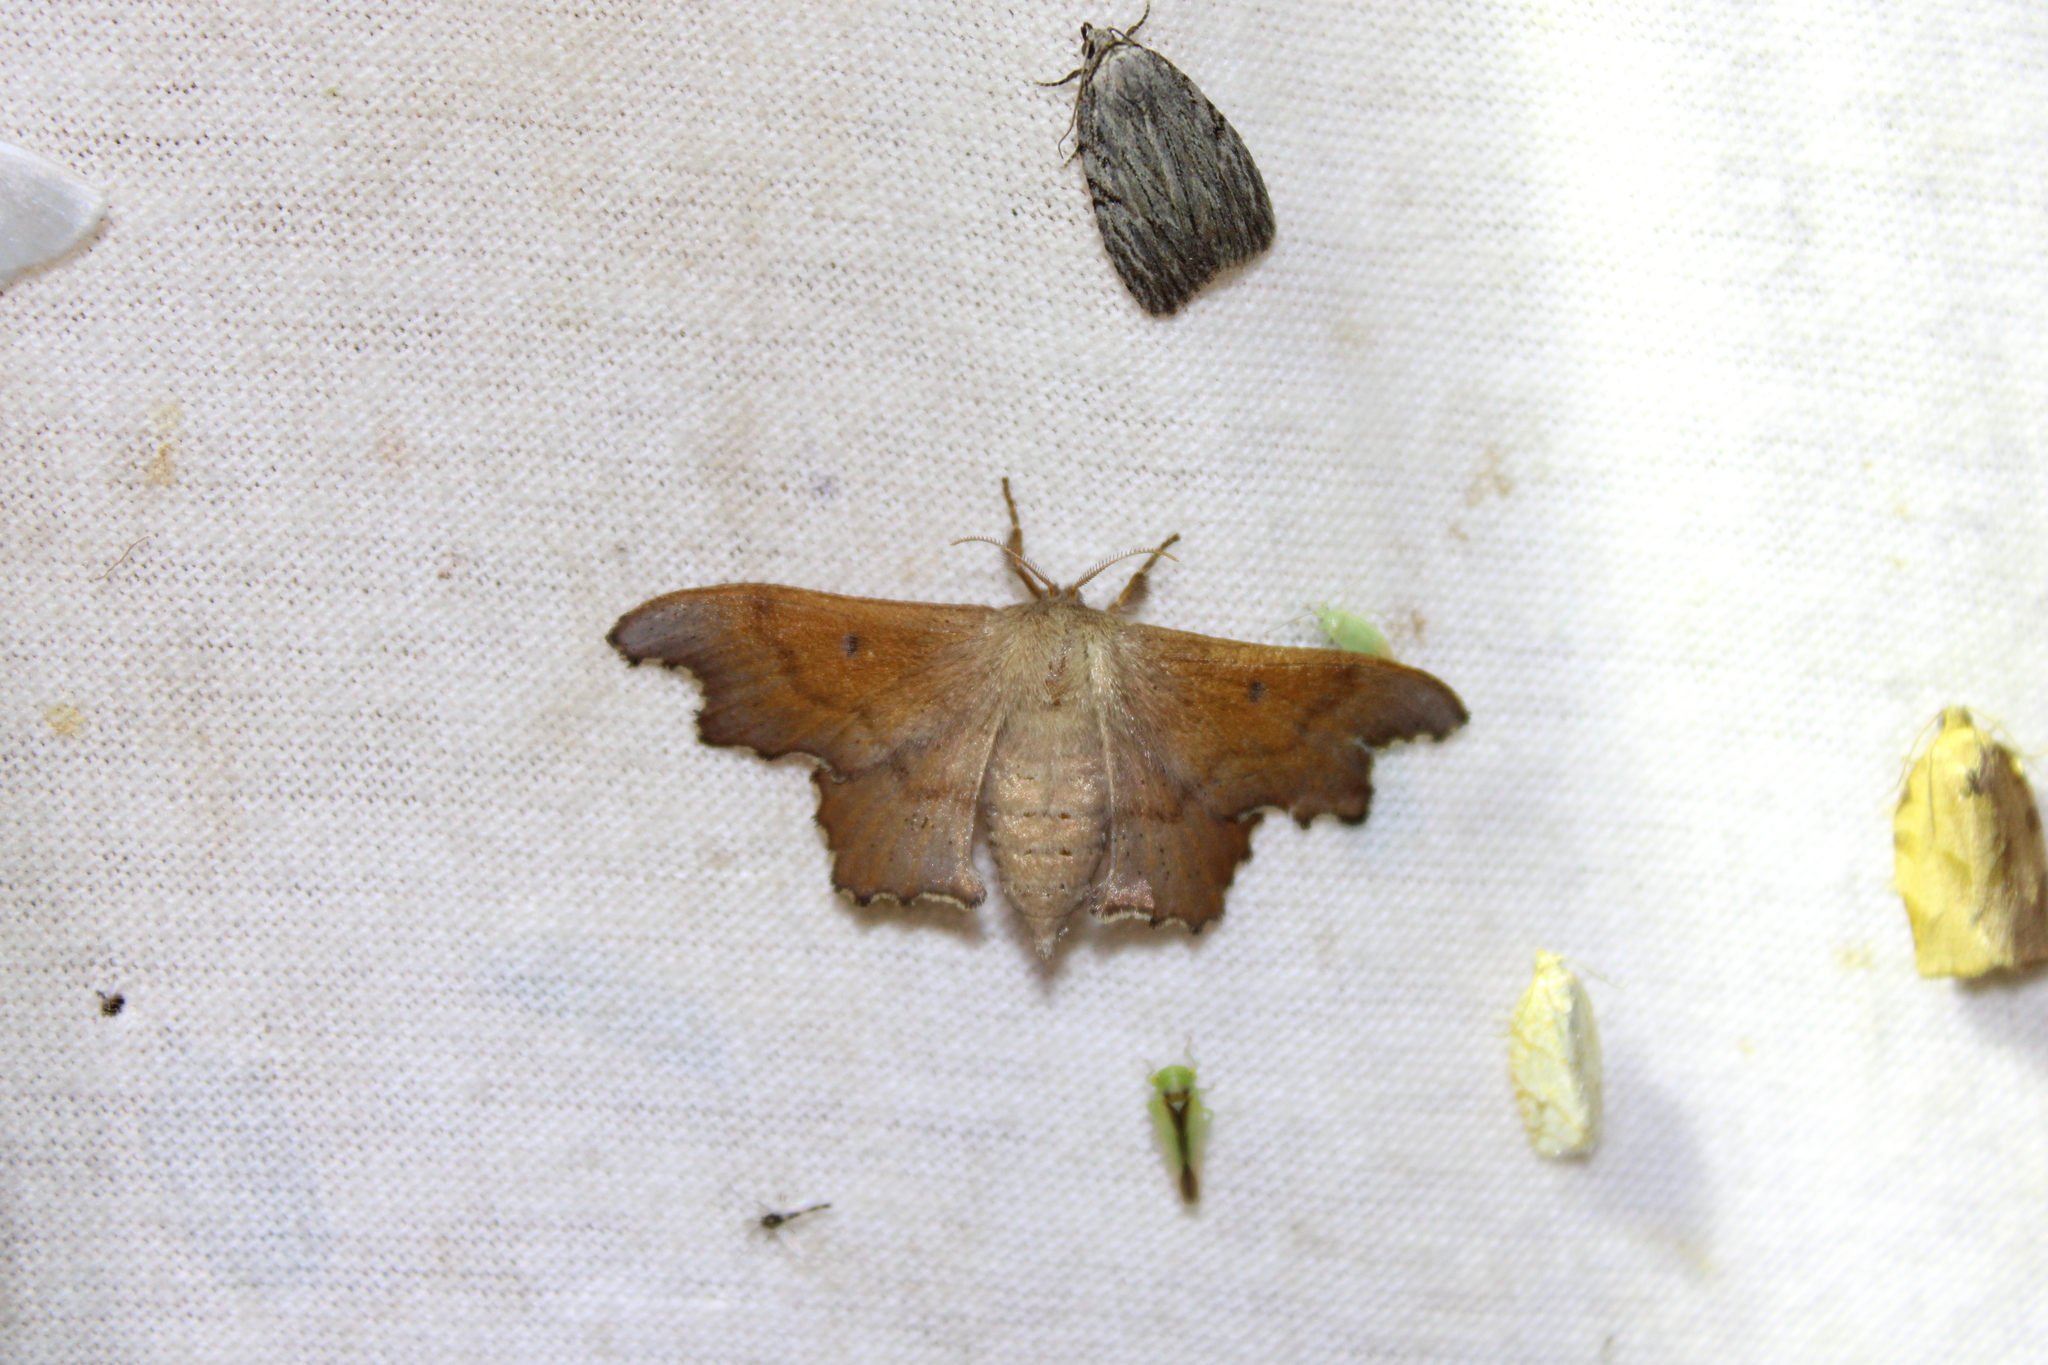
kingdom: Animalia
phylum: Arthropoda
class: Insecta
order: Lepidoptera
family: Mimallonidae
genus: Lacosoma
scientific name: Lacosoma chiridota
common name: Scalloped sack-bearer moth
